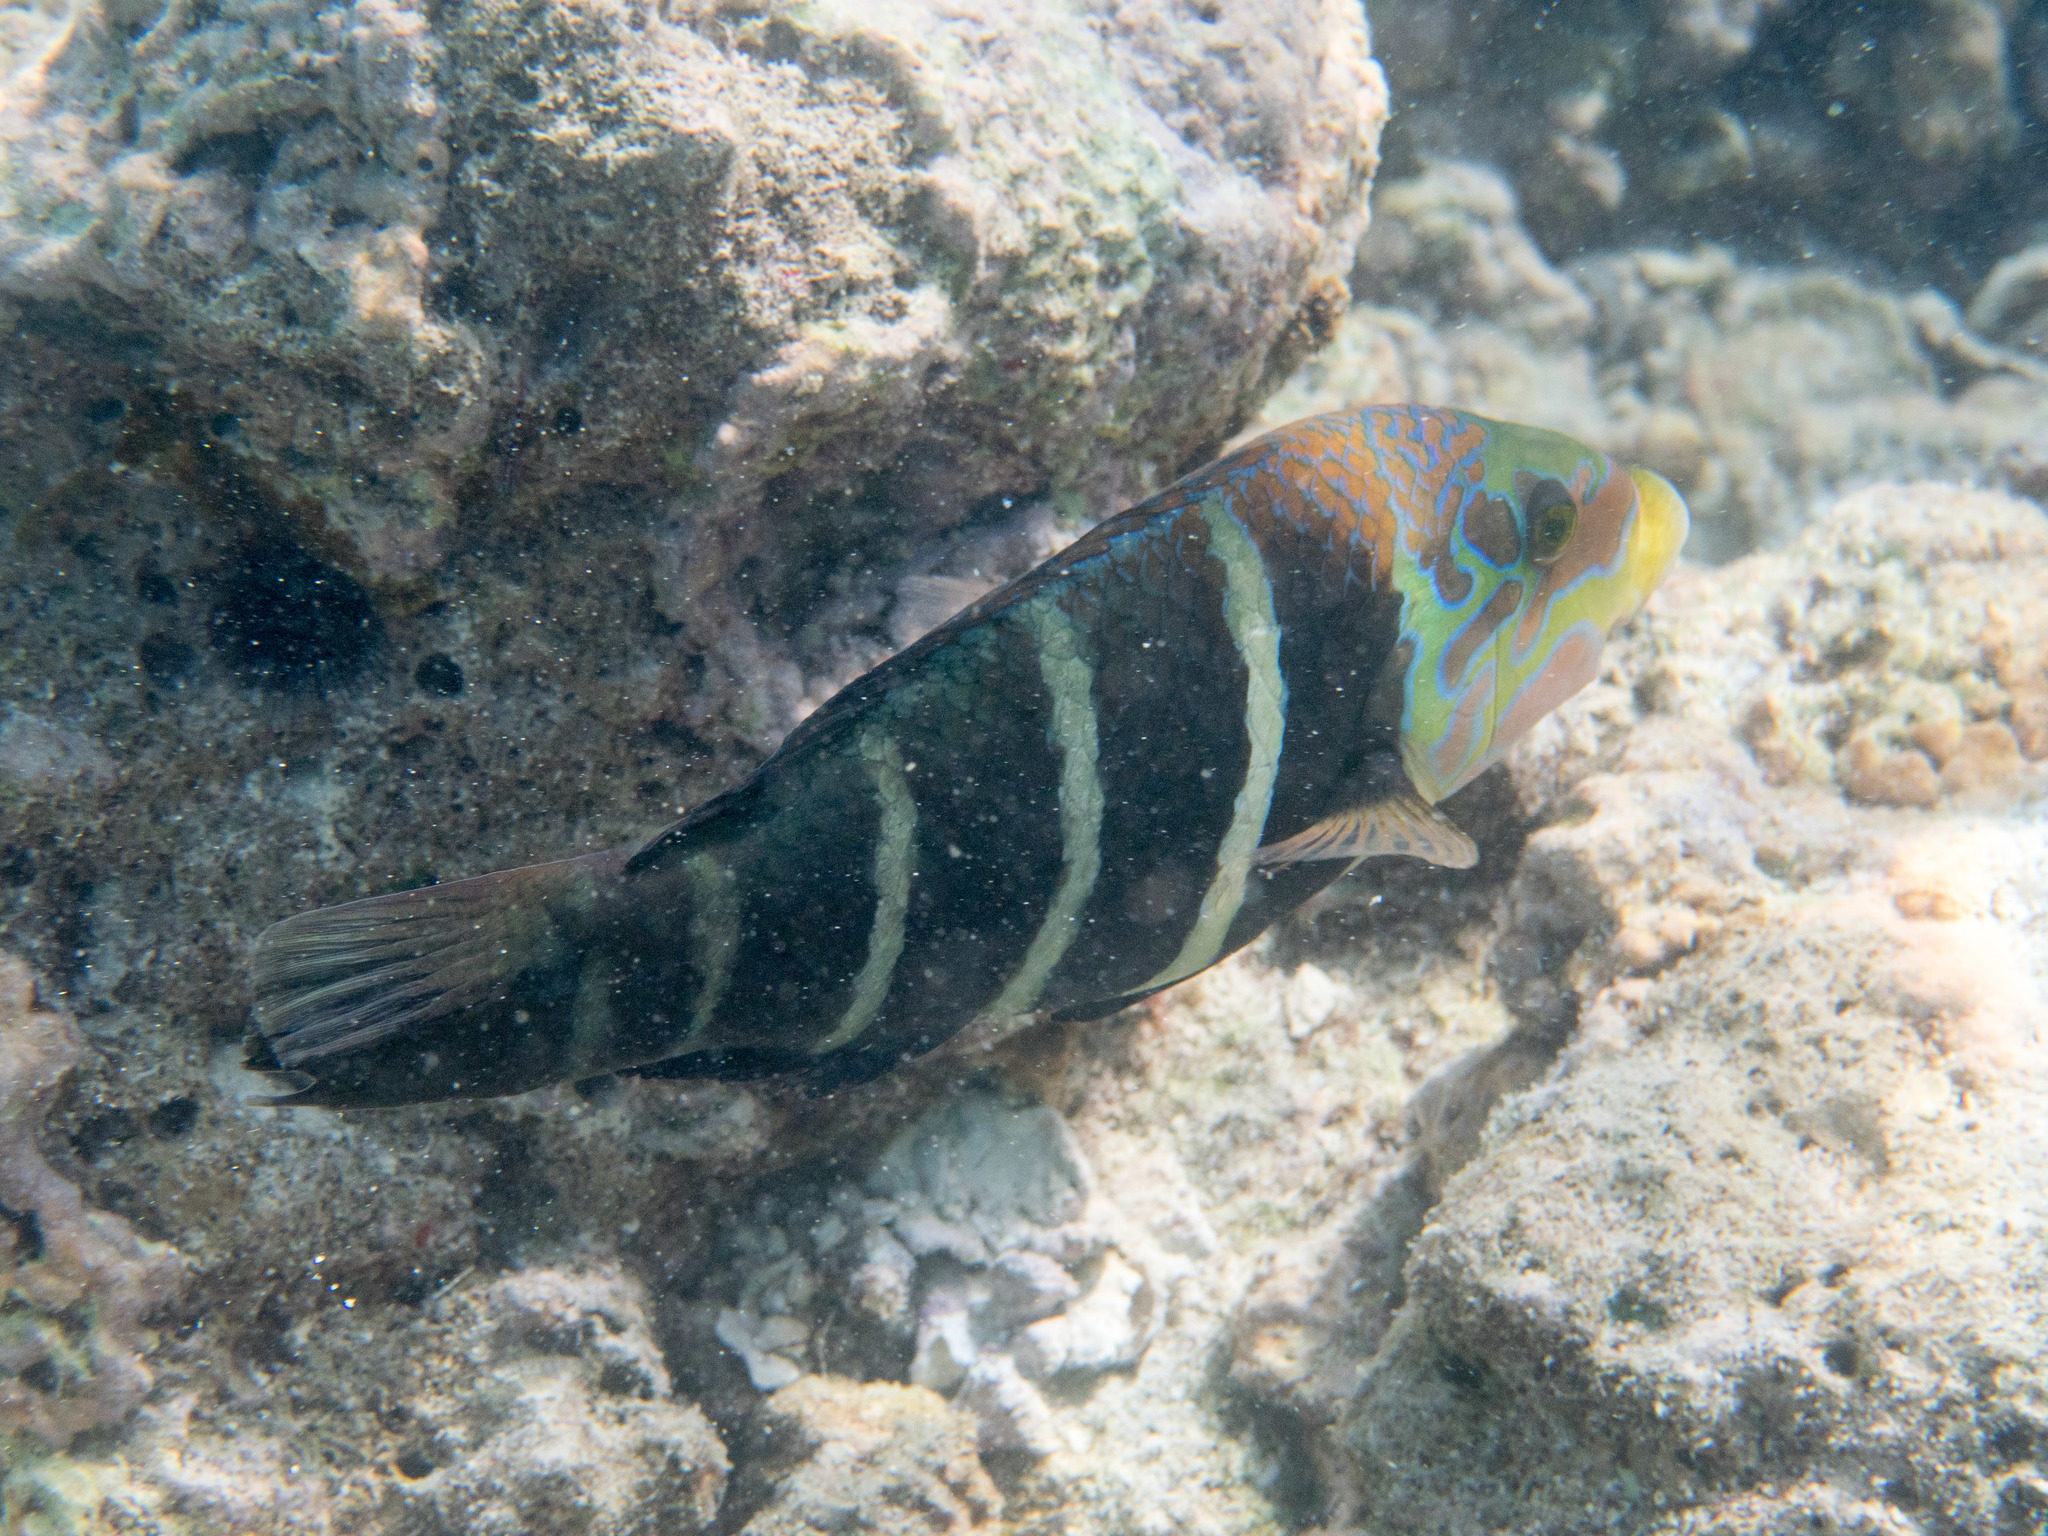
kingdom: Animalia
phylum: Chordata
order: Perciformes
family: Labridae
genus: Hemigymnus
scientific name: Hemigymnus fasciatus
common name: Barred thicklip
